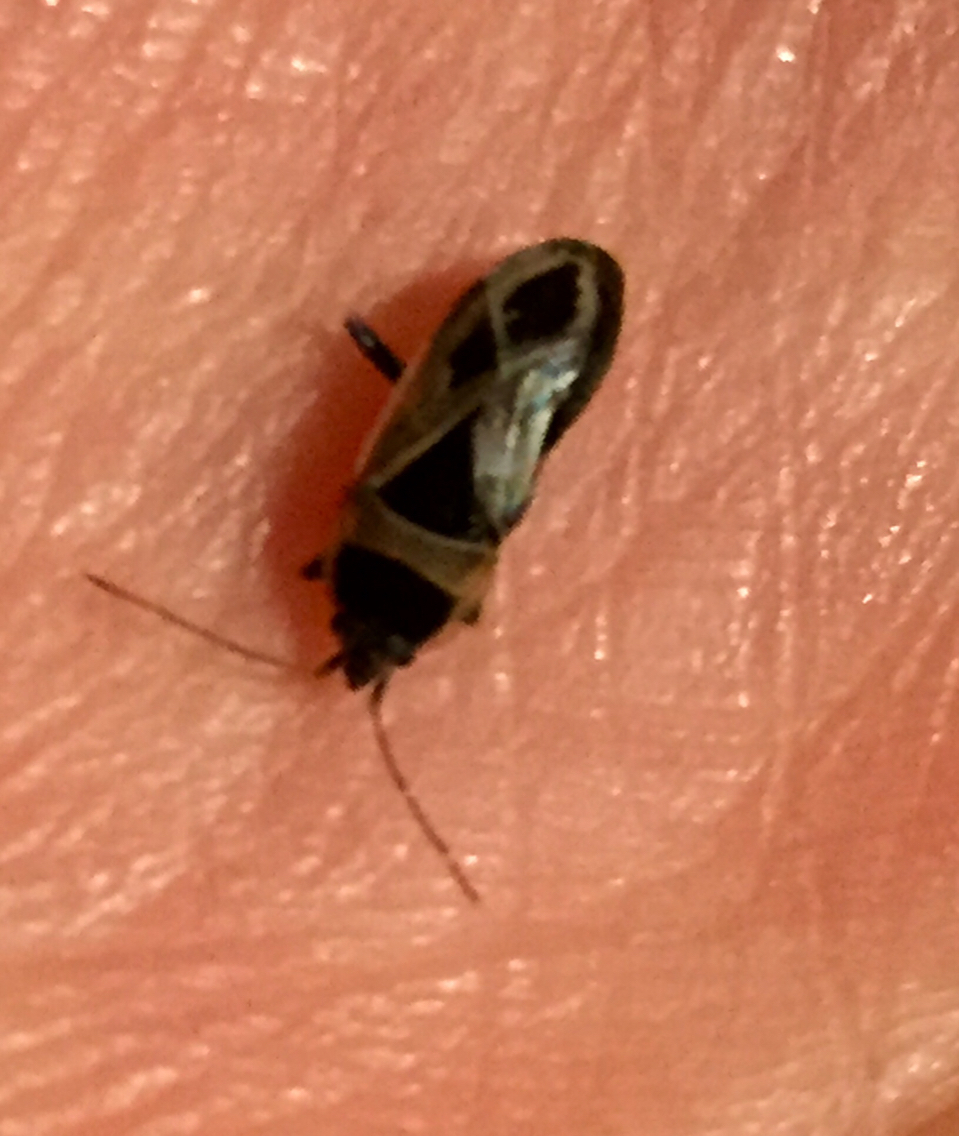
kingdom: Animalia
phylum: Arthropoda
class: Insecta
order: Hemiptera
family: Rhyparochromidae
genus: Xanthochilus
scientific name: Xanthochilus saturnius
